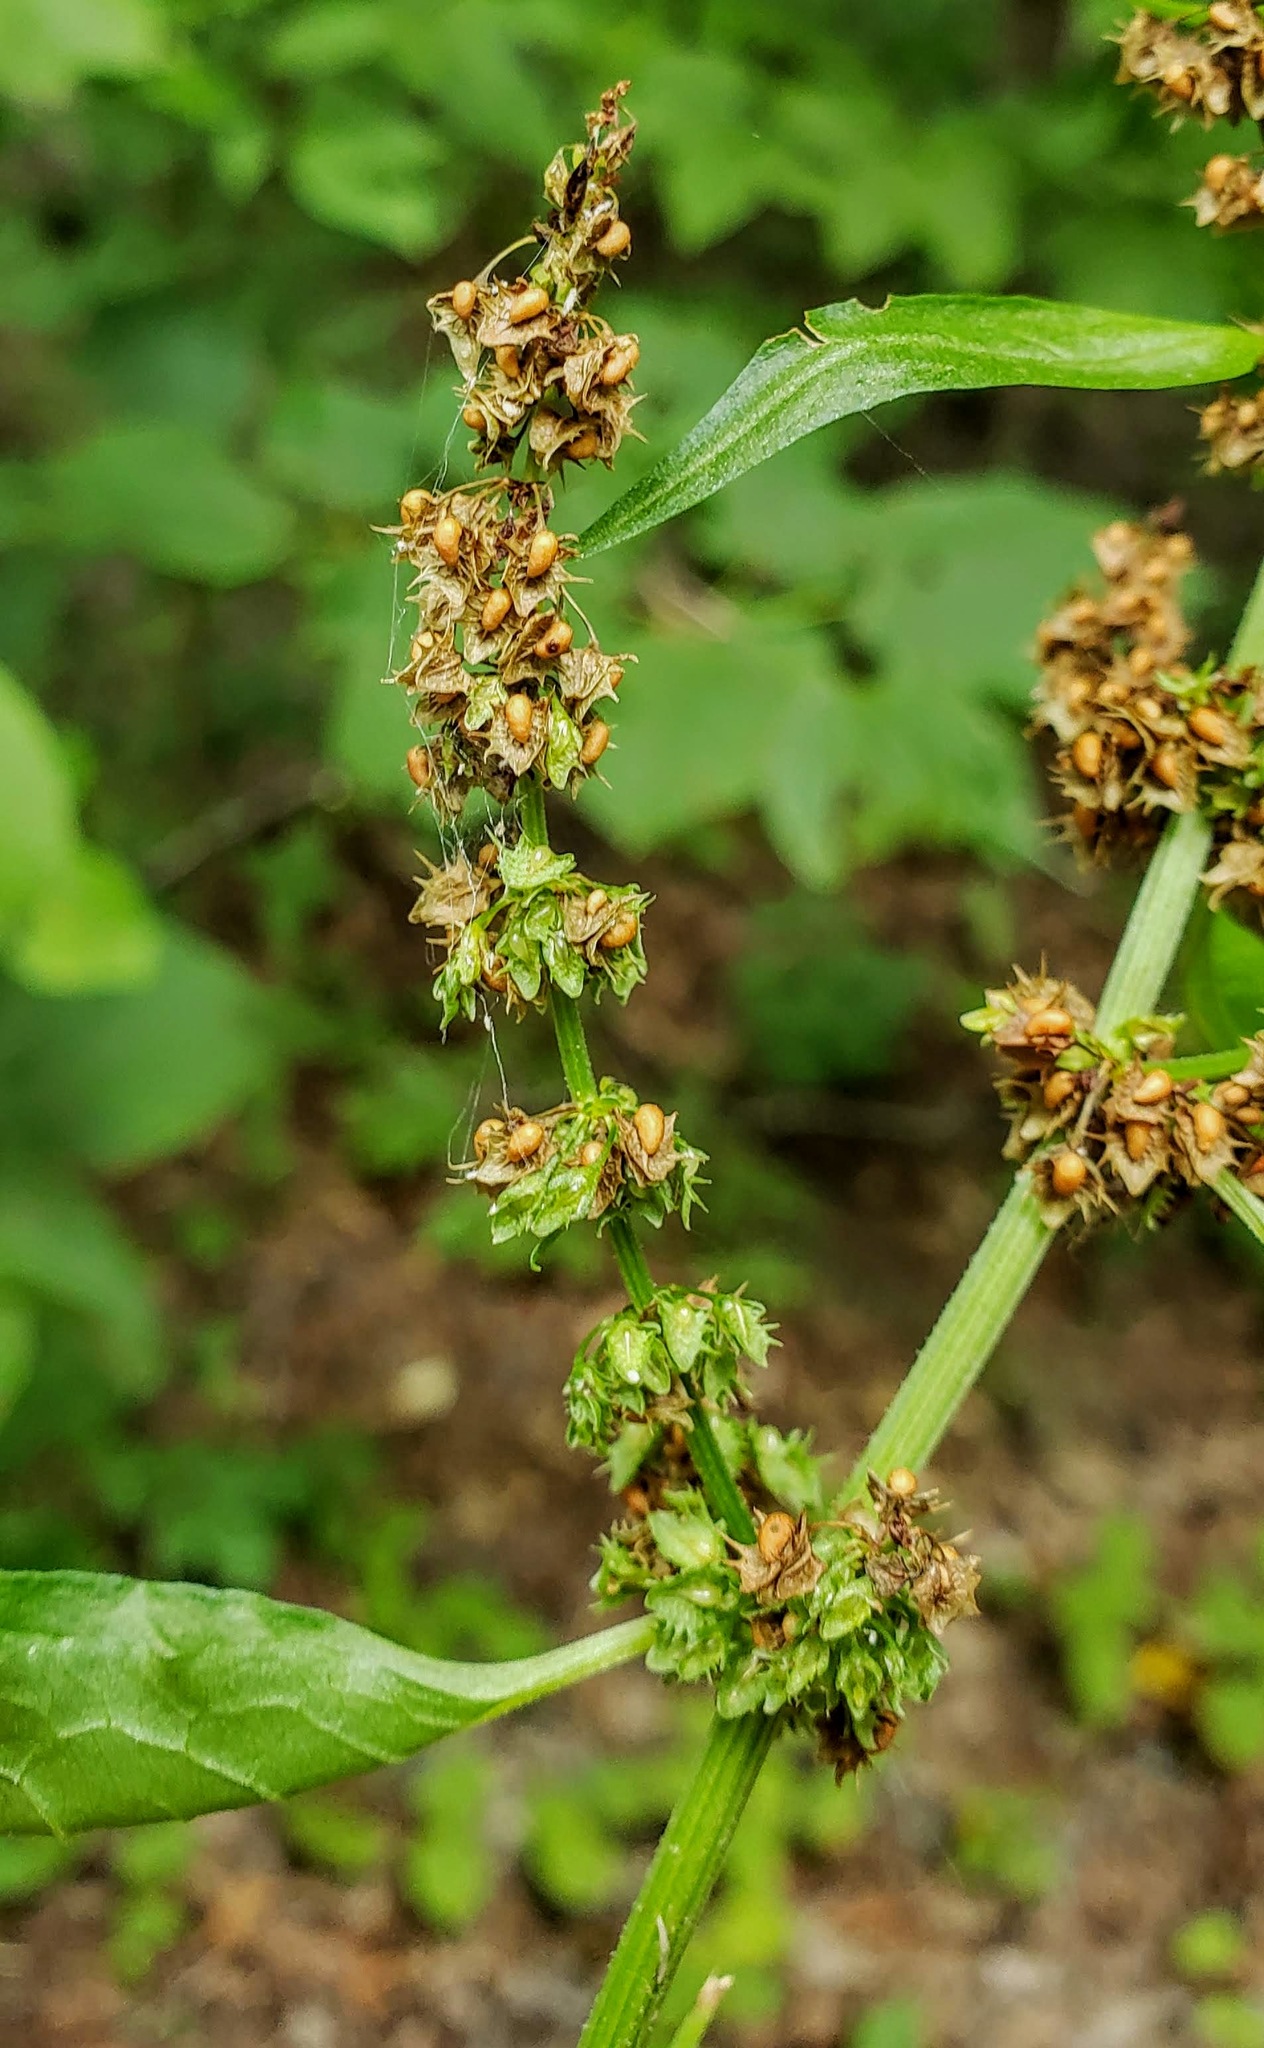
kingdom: Plantae
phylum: Tracheophyta
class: Magnoliopsida
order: Caryophyllales
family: Polygonaceae
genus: Rumex
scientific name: Rumex obtusifolius
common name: Bitter dock
